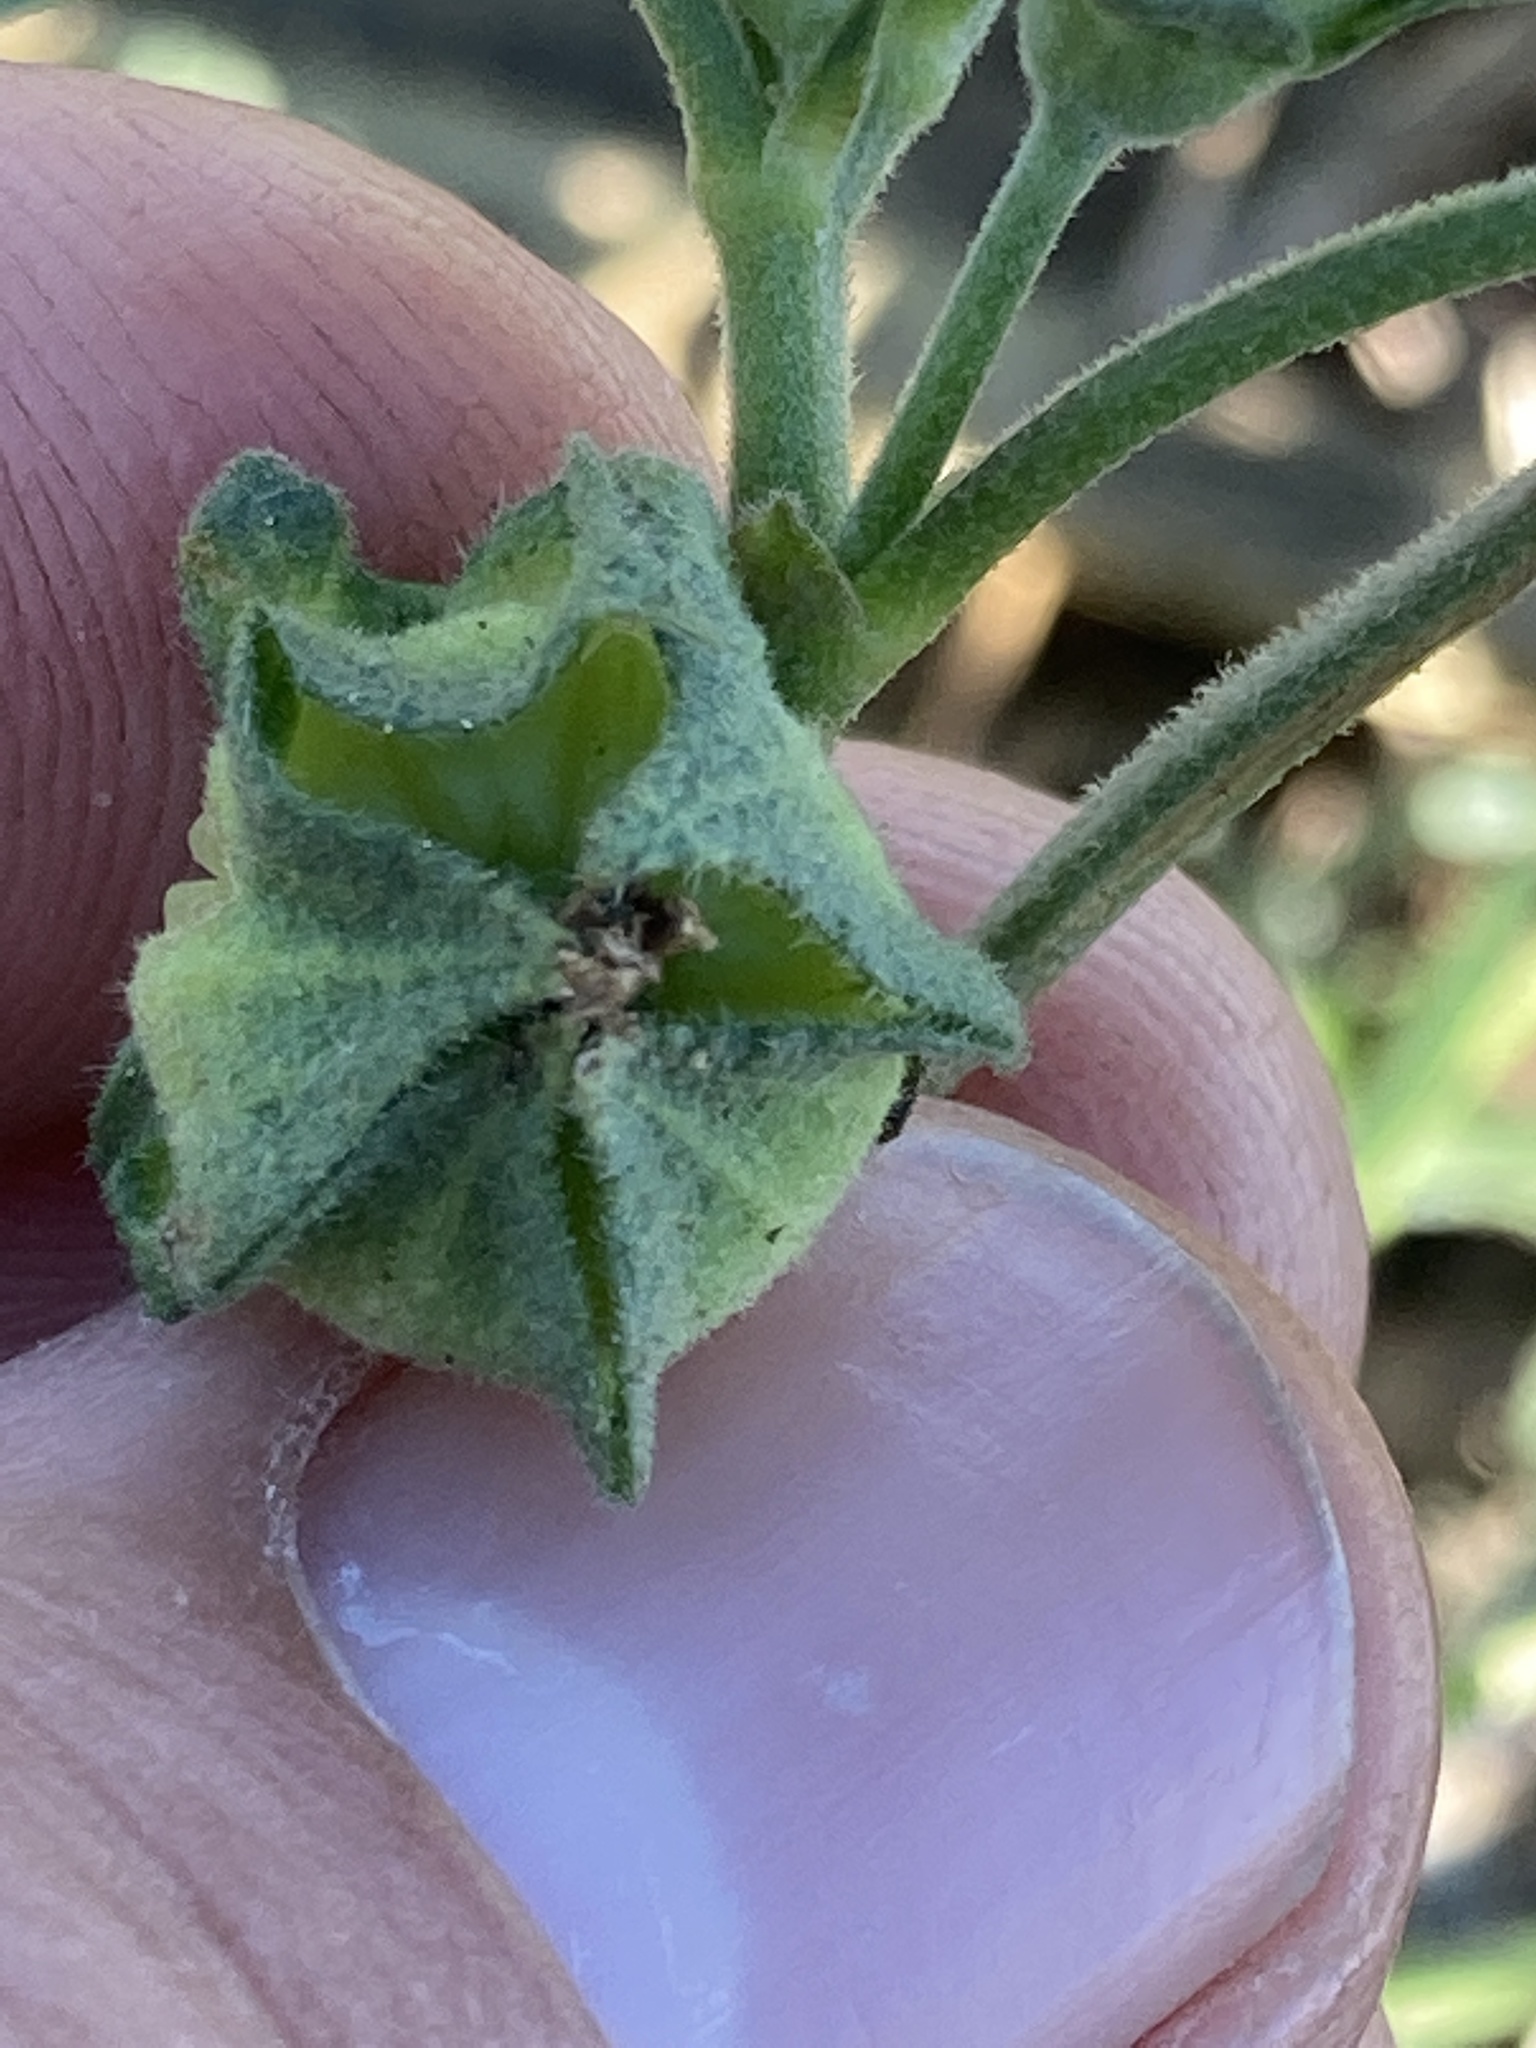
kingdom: Plantae
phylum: Tracheophyta
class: Magnoliopsida
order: Malvales
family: Malvaceae
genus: Malva
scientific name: Malva multiflora
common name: Cheeseweed
